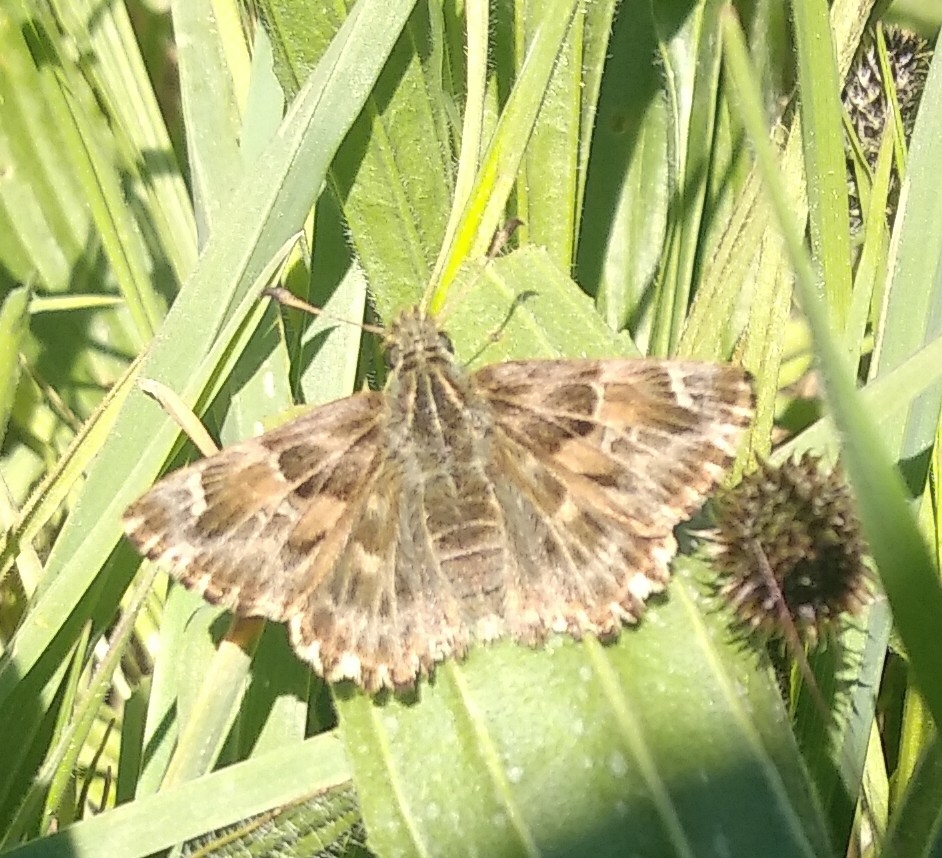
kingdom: Animalia
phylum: Arthropoda
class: Insecta
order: Lepidoptera
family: Hesperiidae
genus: Carcharodus
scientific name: Carcharodus alceae
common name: Mallow skipper
